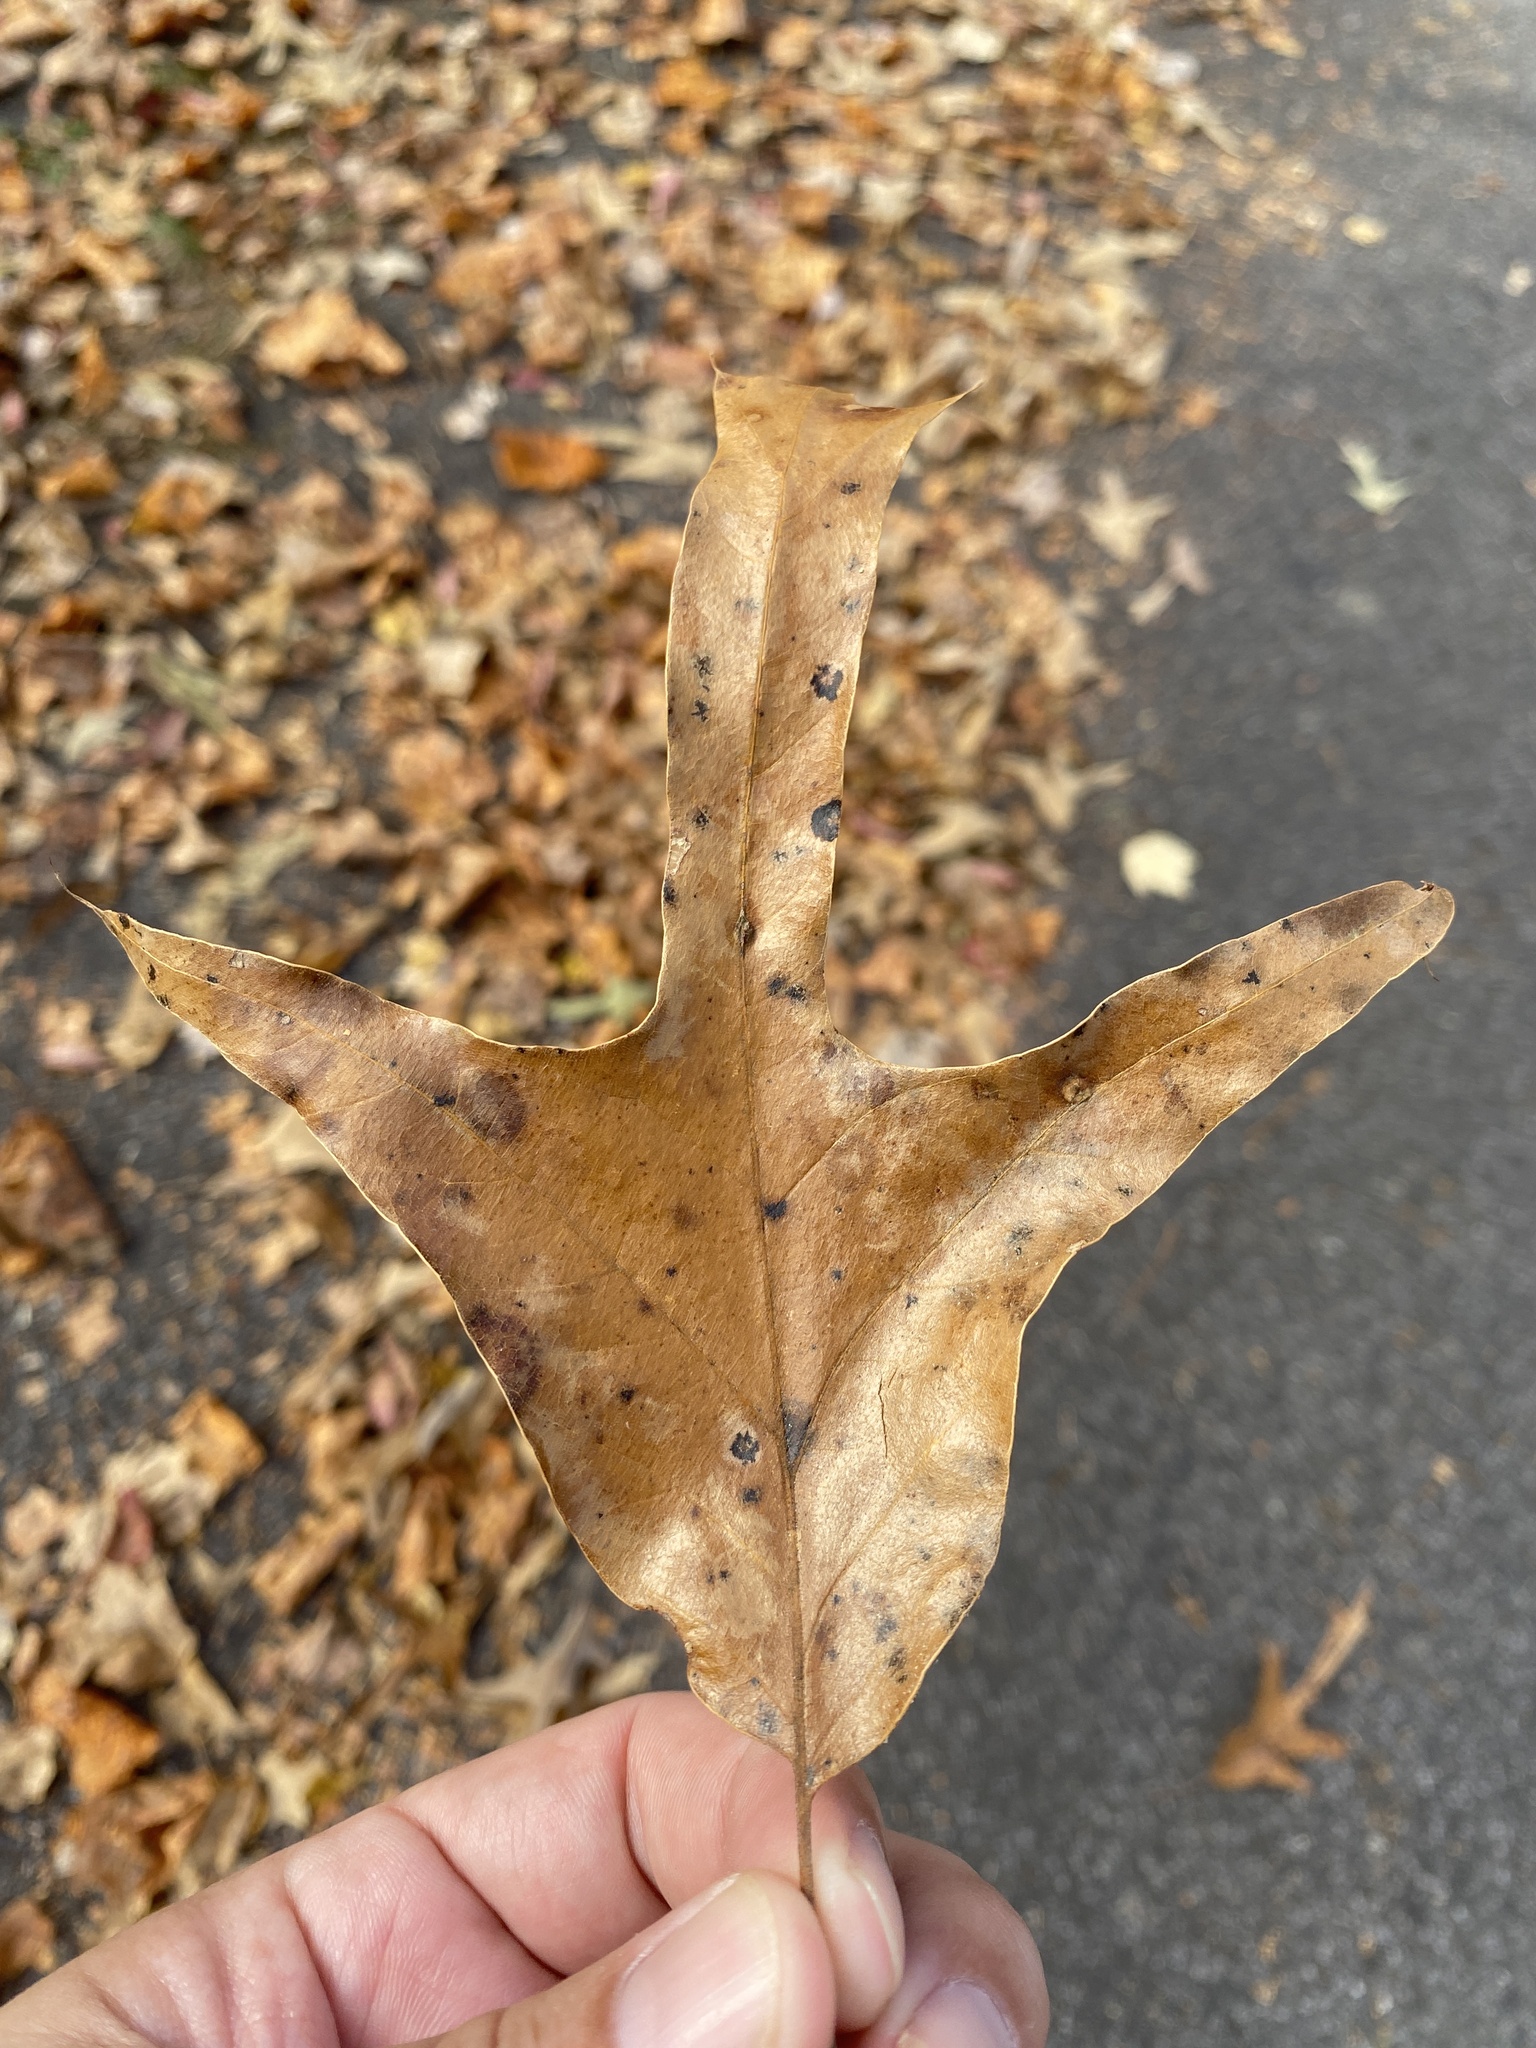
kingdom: Plantae
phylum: Tracheophyta
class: Magnoliopsida
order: Fagales
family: Fagaceae
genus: Quercus
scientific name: Quercus falcata
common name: Southern red oak
